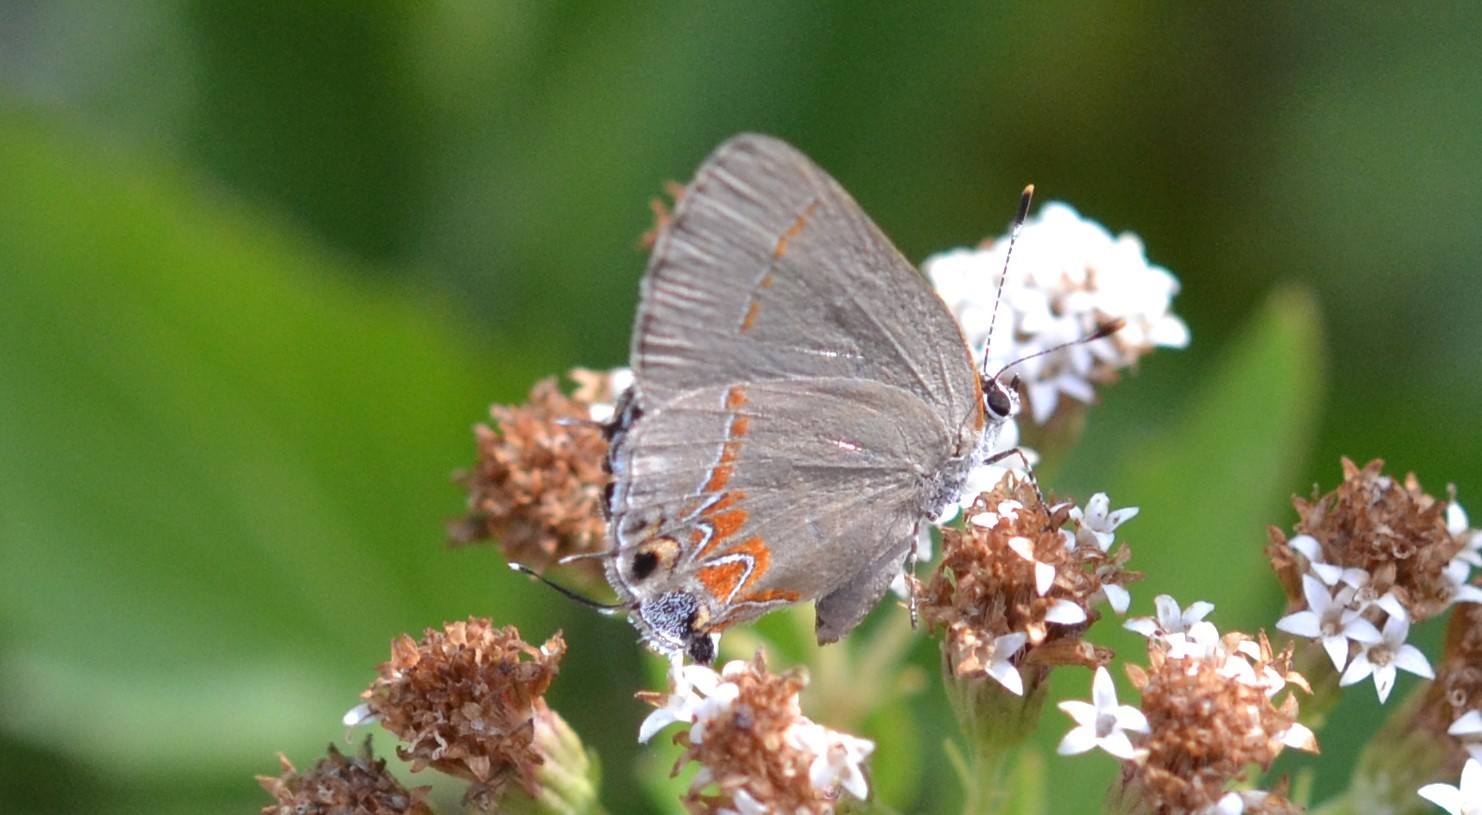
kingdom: Animalia
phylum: Arthropoda
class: Insecta
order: Lepidoptera
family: Lycaenidae
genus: Calycopis
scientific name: Calycopis isobeon
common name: Dusky-blue groundstreak
